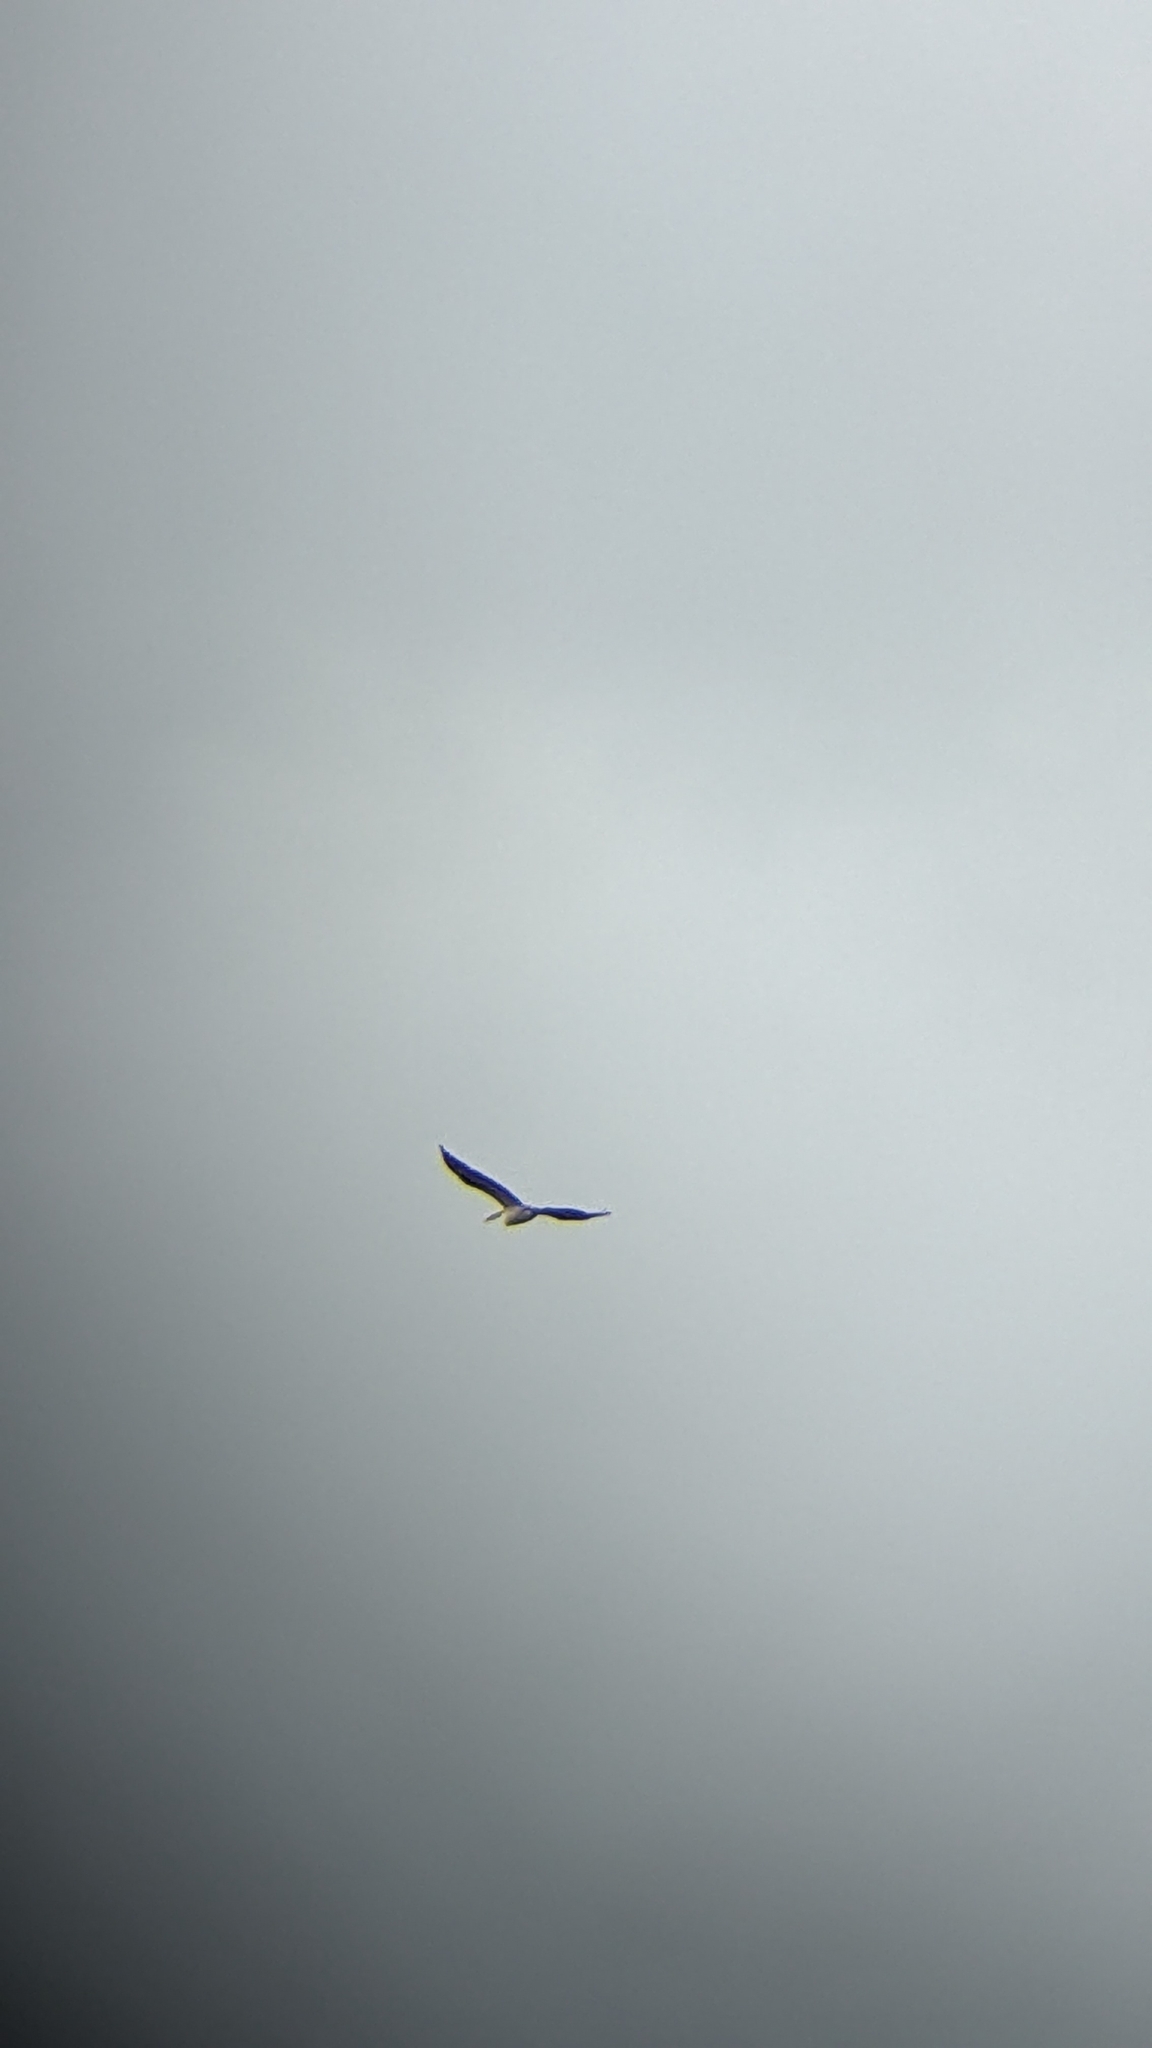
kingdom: Animalia
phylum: Chordata
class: Aves
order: Pelecaniformes
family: Pelecanidae
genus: Pelecanus
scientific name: Pelecanus conspicillatus
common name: Australian pelican
